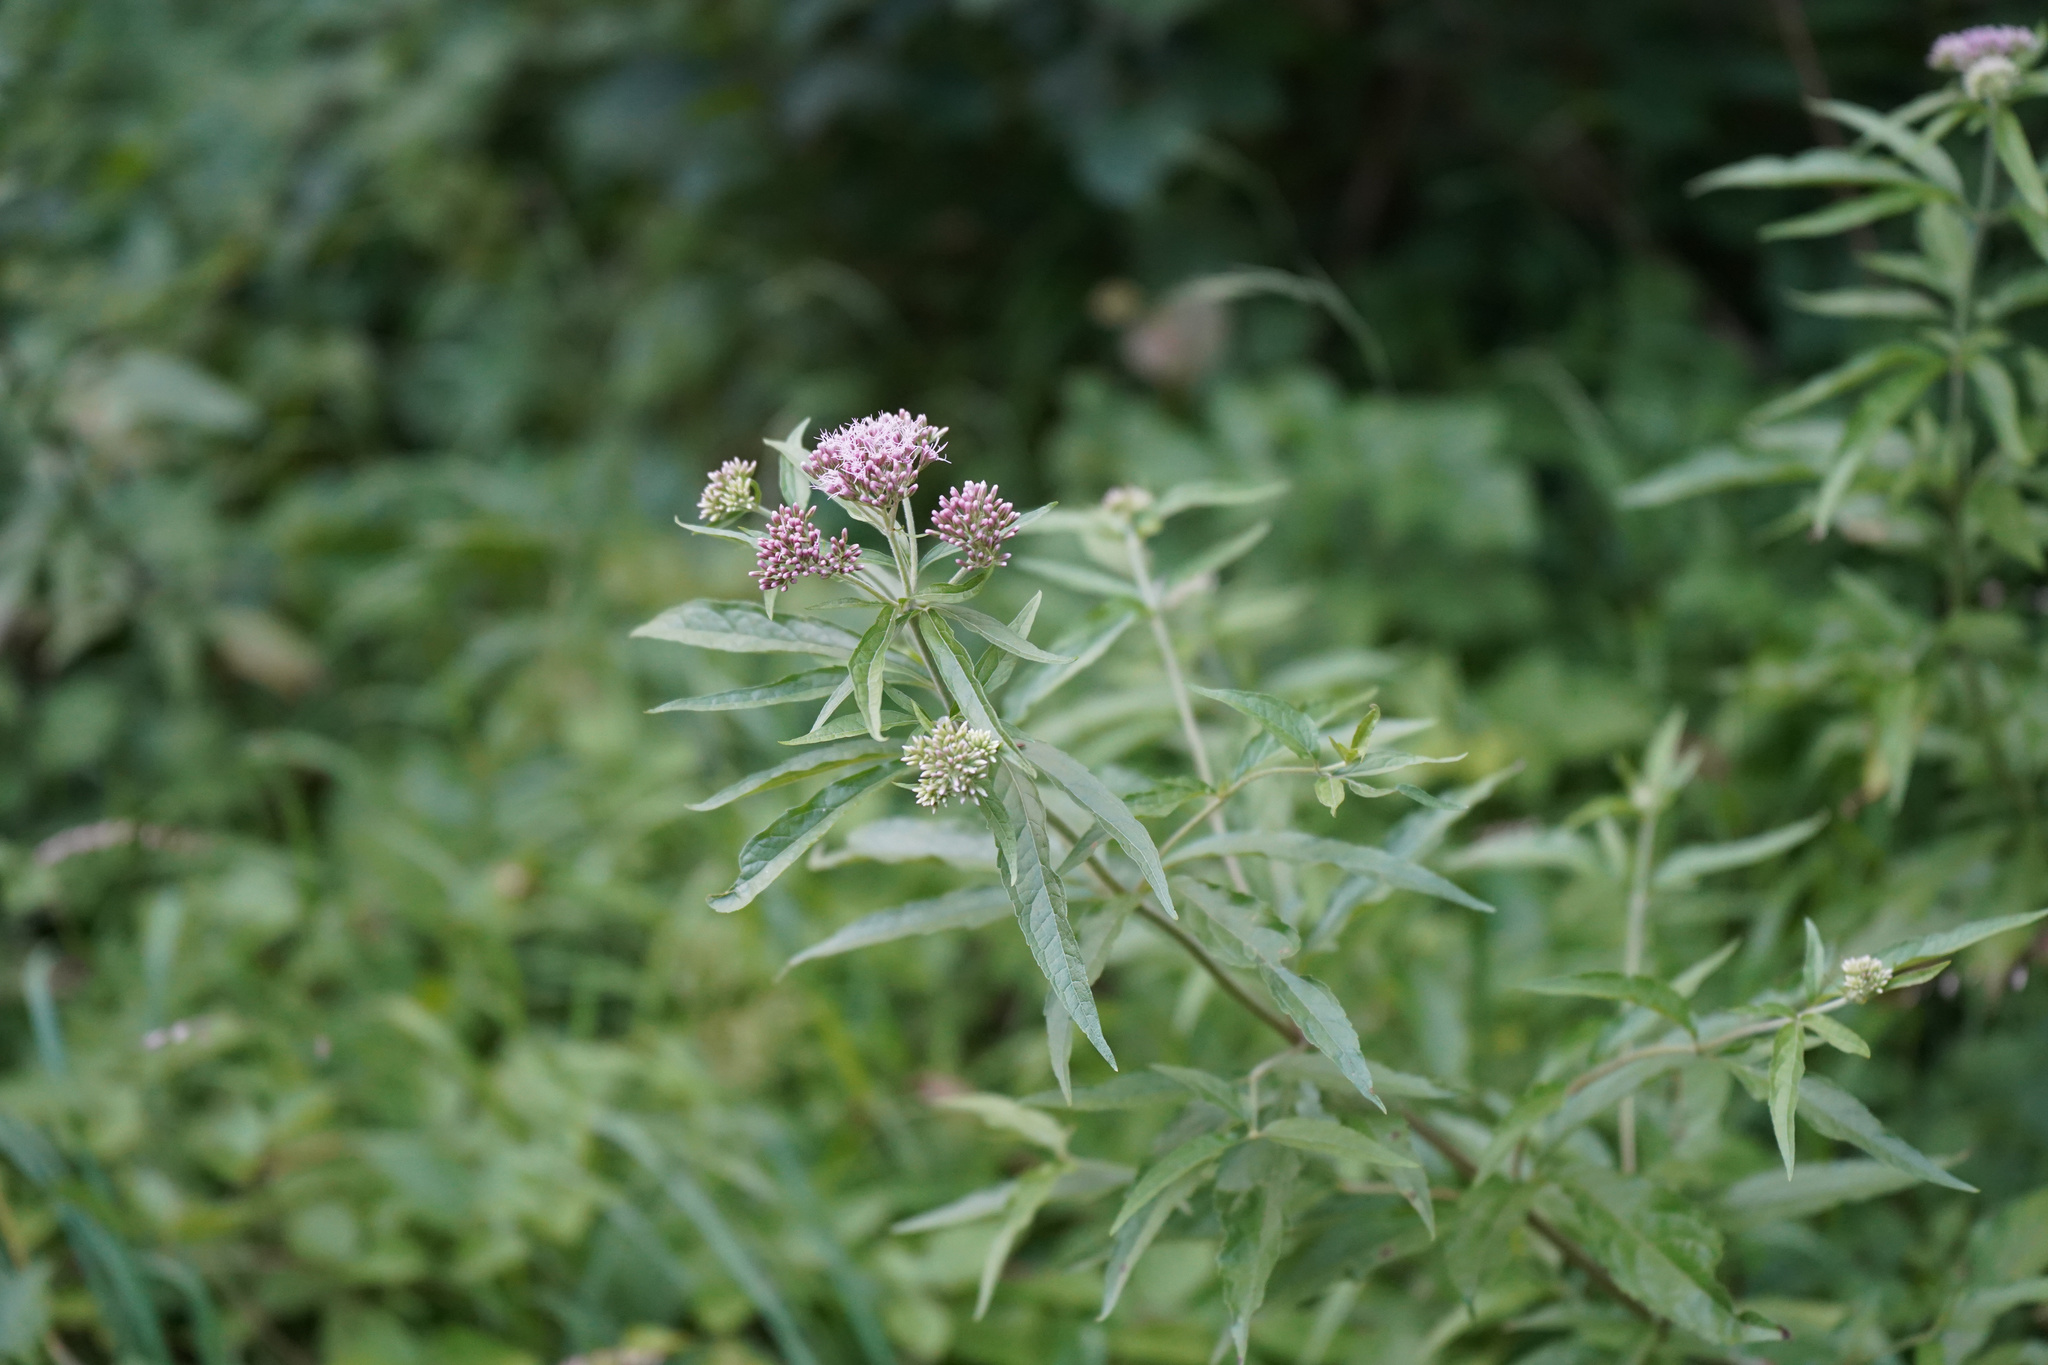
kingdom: Plantae
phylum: Tracheophyta
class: Magnoliopsida
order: Asterales
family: Asteraceae
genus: Eupatorium
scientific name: Eupatorium cannabinum
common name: Hemp-agrimony
